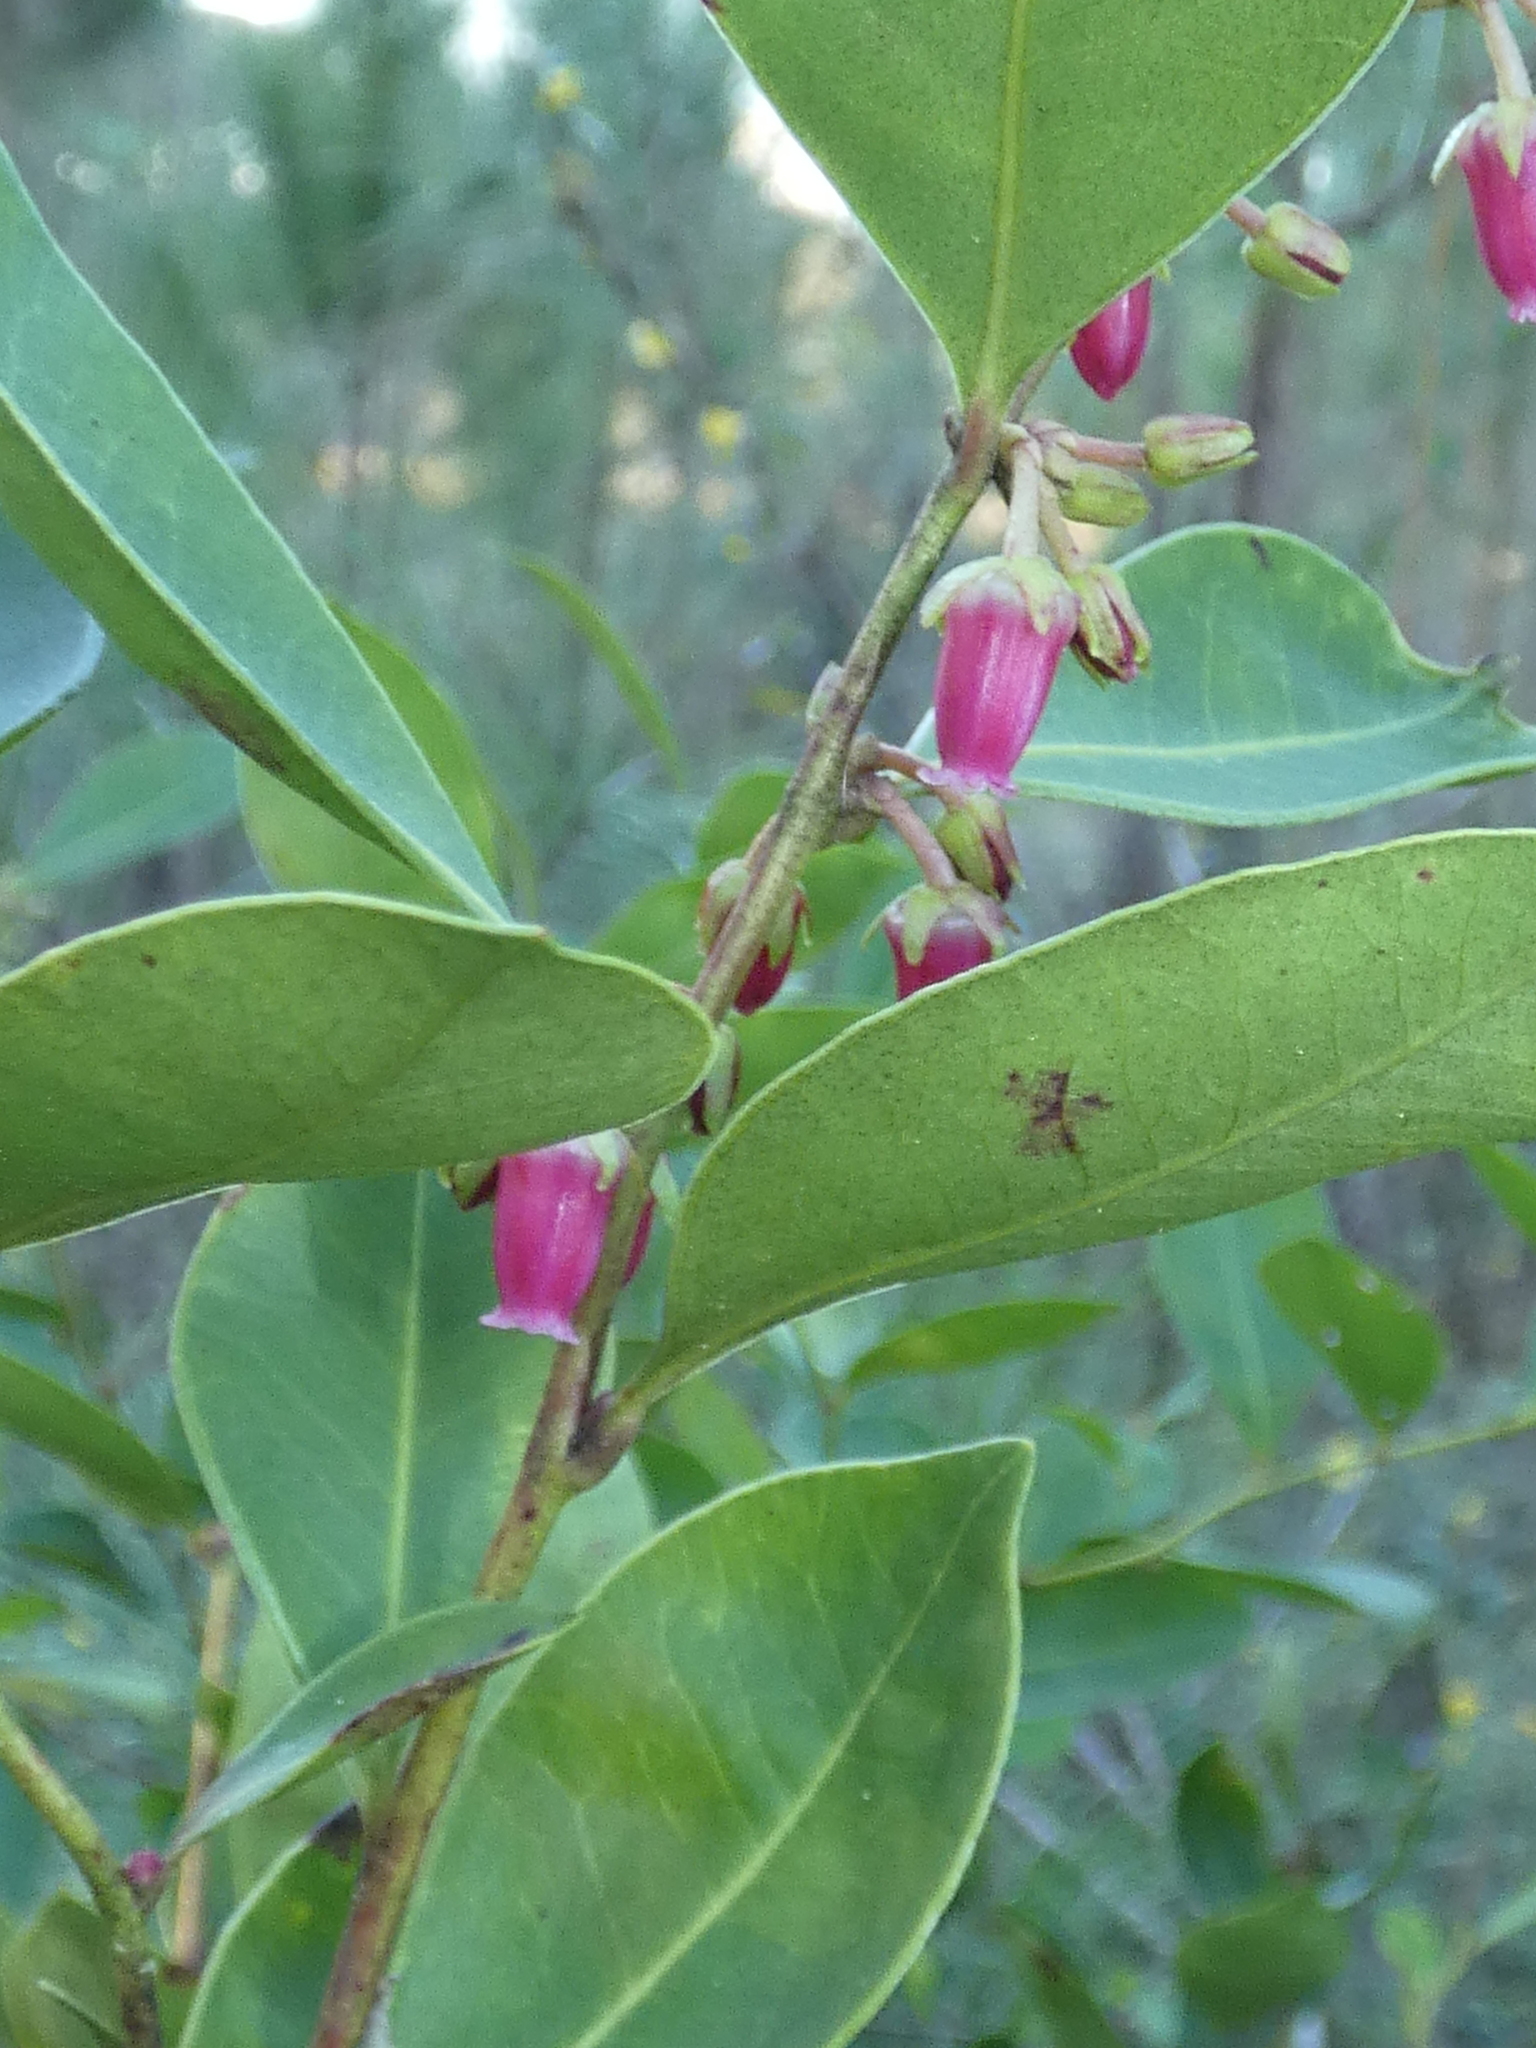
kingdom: Plantae
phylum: Tracheophyta
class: Magnoliopsida
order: Ericales
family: Ericaceae
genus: Lyonia
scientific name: Lyonia lucida
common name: Fetterbush
